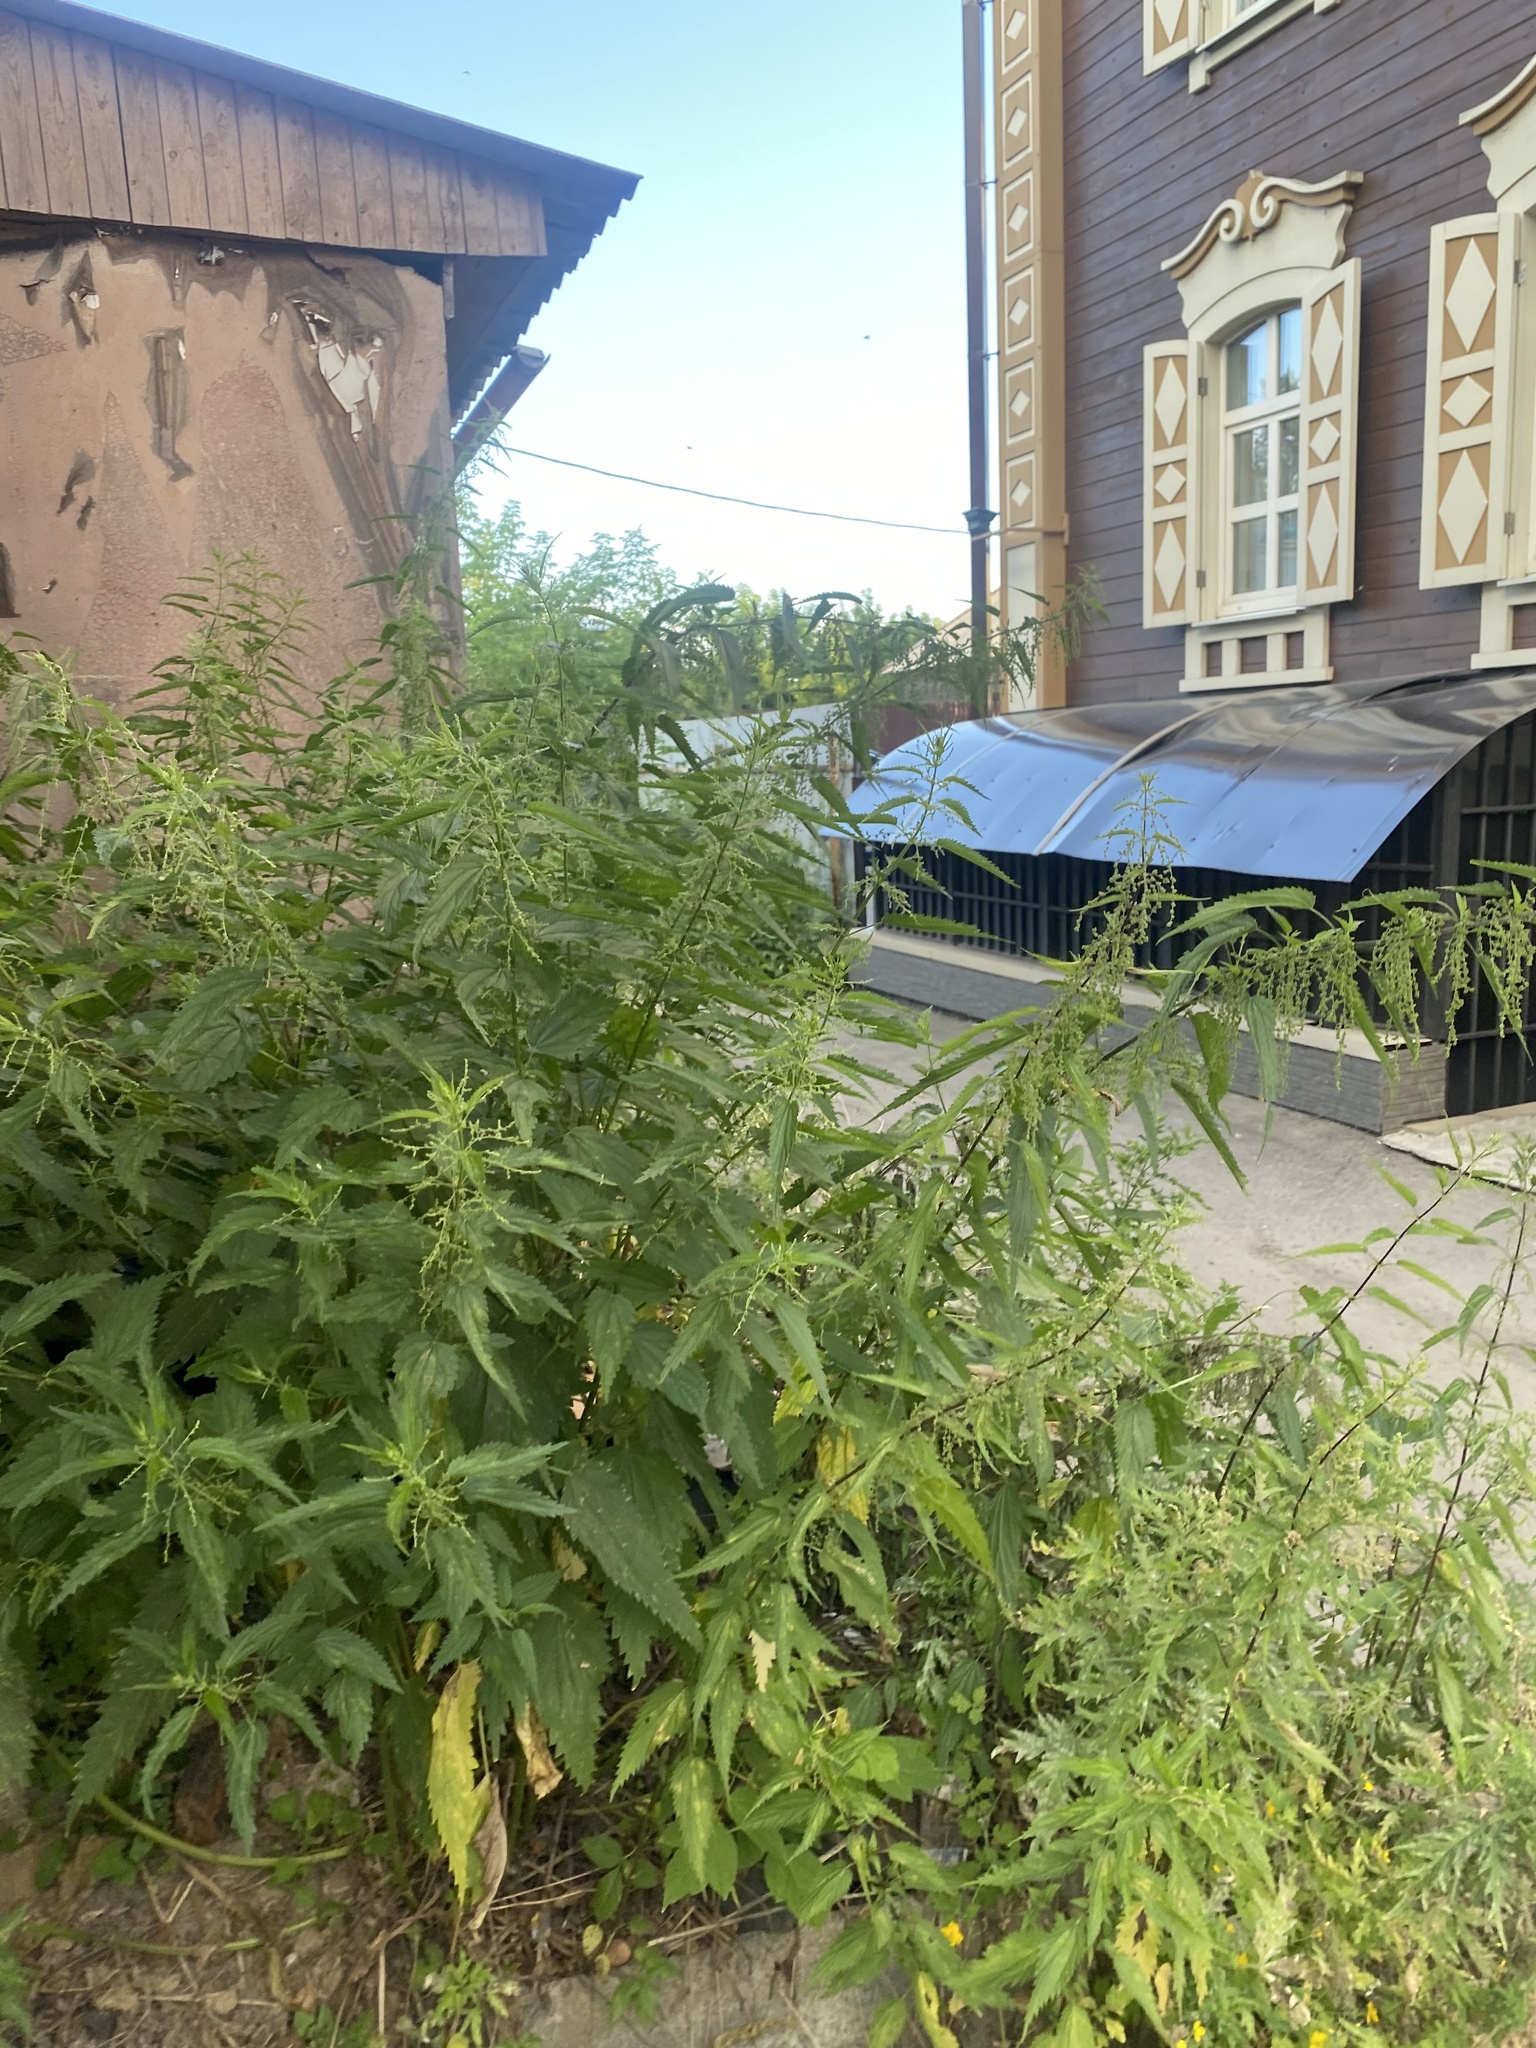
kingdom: Plantae
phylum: Tracheophyta
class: Magnoliopsida
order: Rosales
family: Urticaceae
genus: Urtica
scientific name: Urtica dioica
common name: Common nettle
